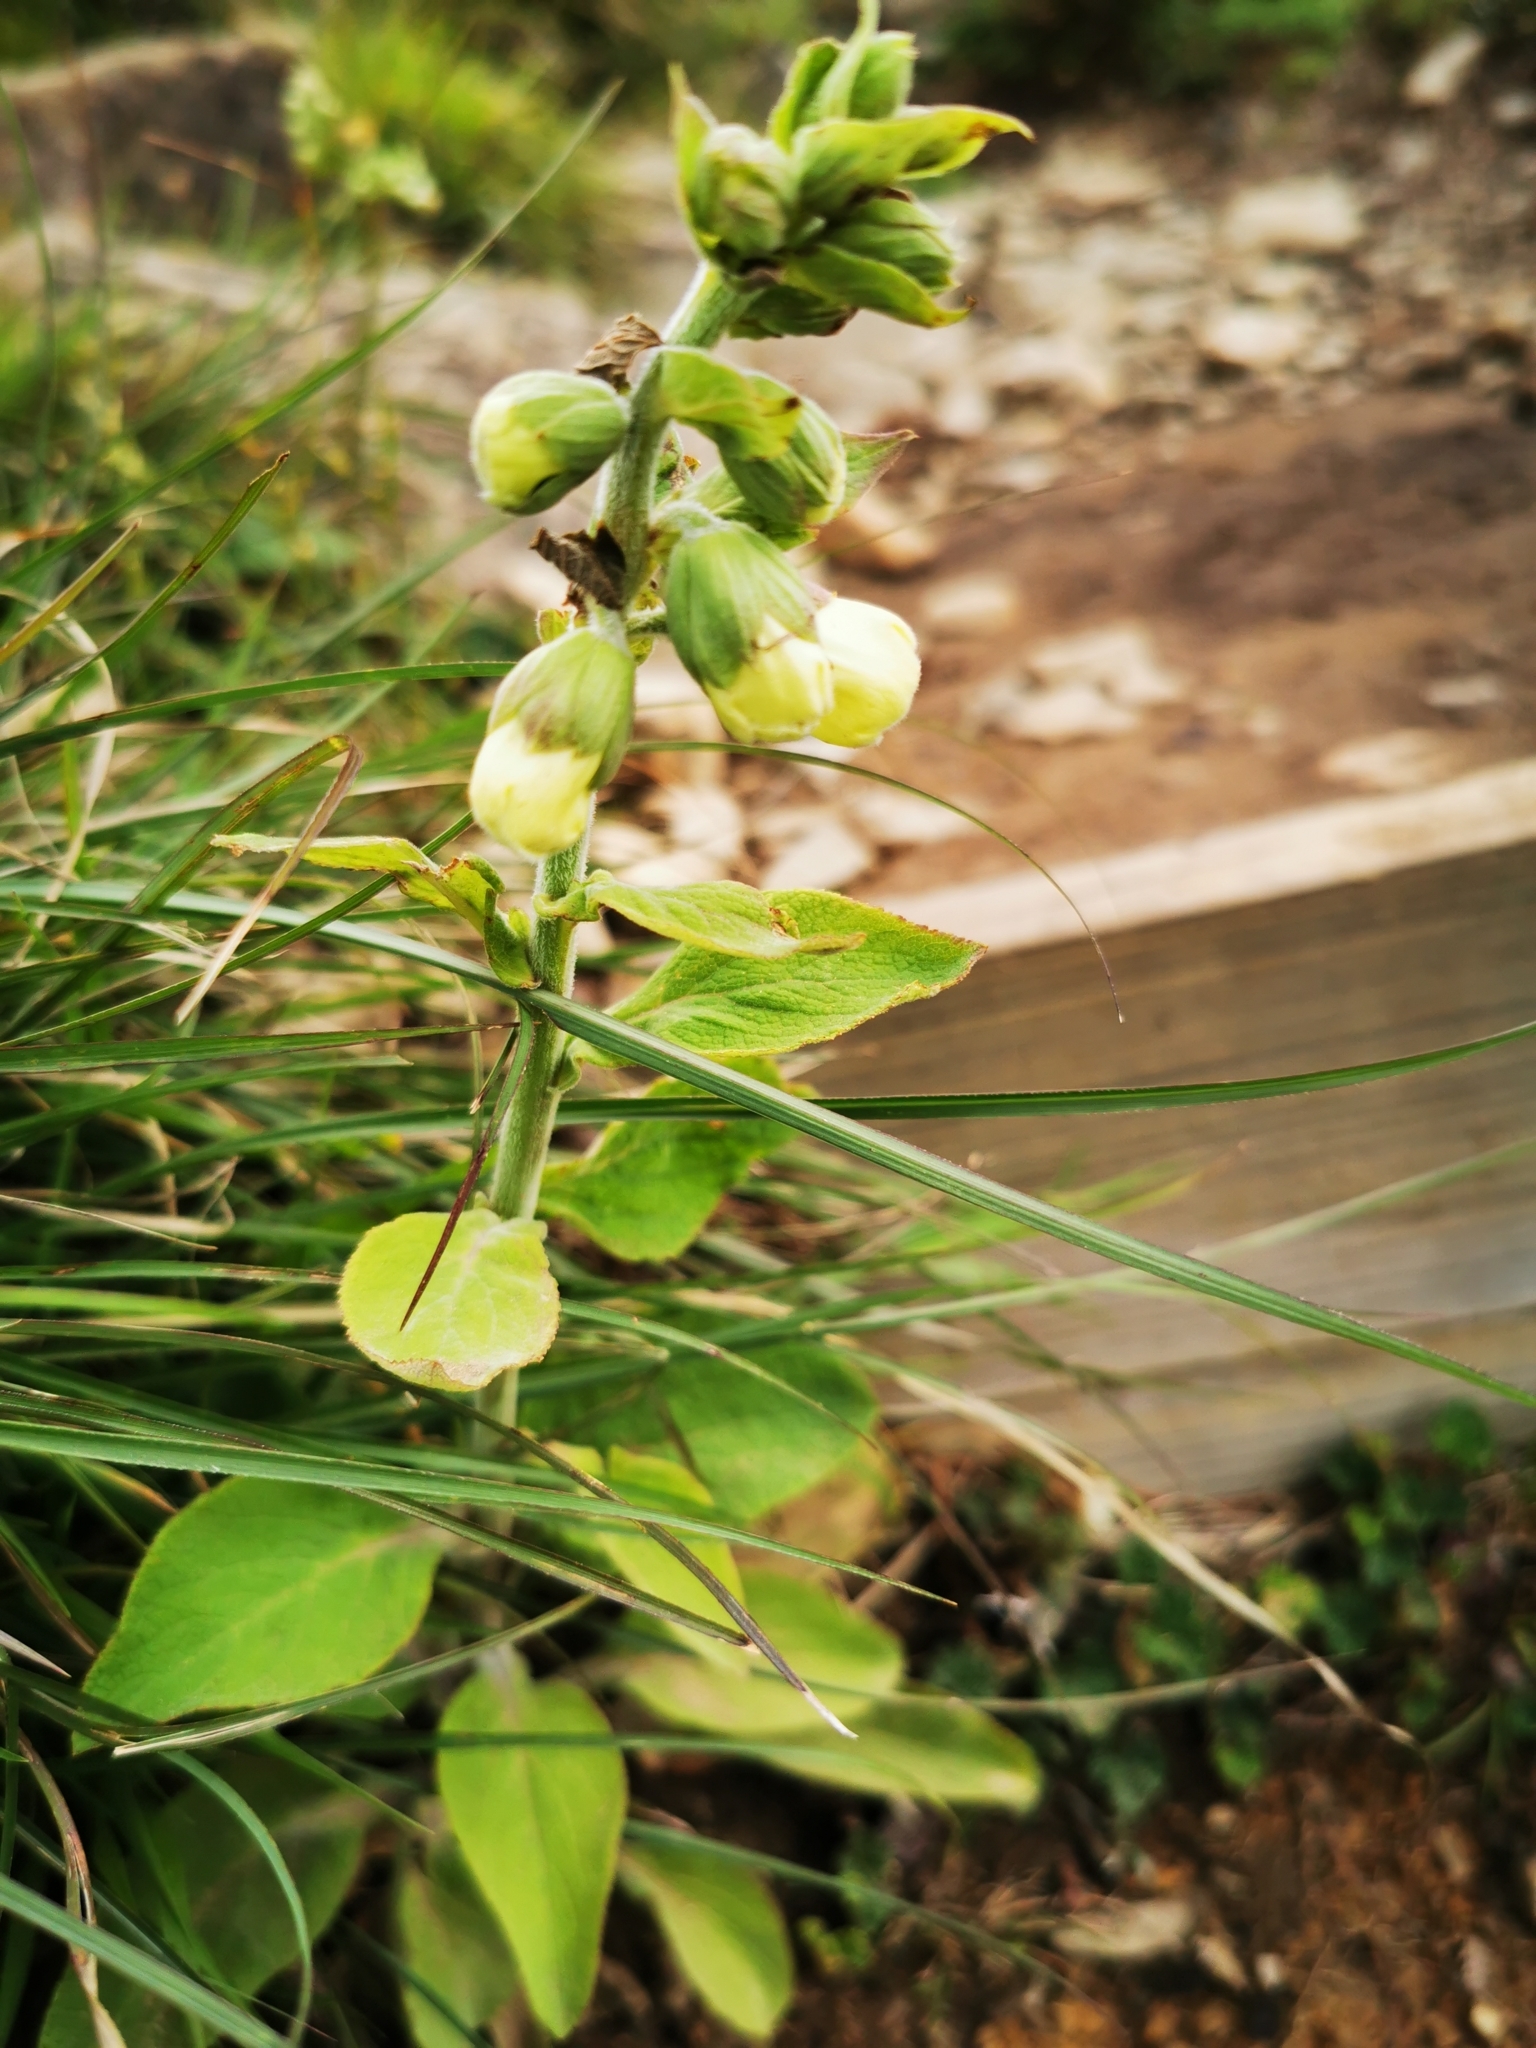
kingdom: Plantae
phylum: Tracheophyta
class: Magnoliopsida
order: Lamiales
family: Plantaginaceae
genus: Digitalis
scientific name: Digitalis purpurea
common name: Foxglove
